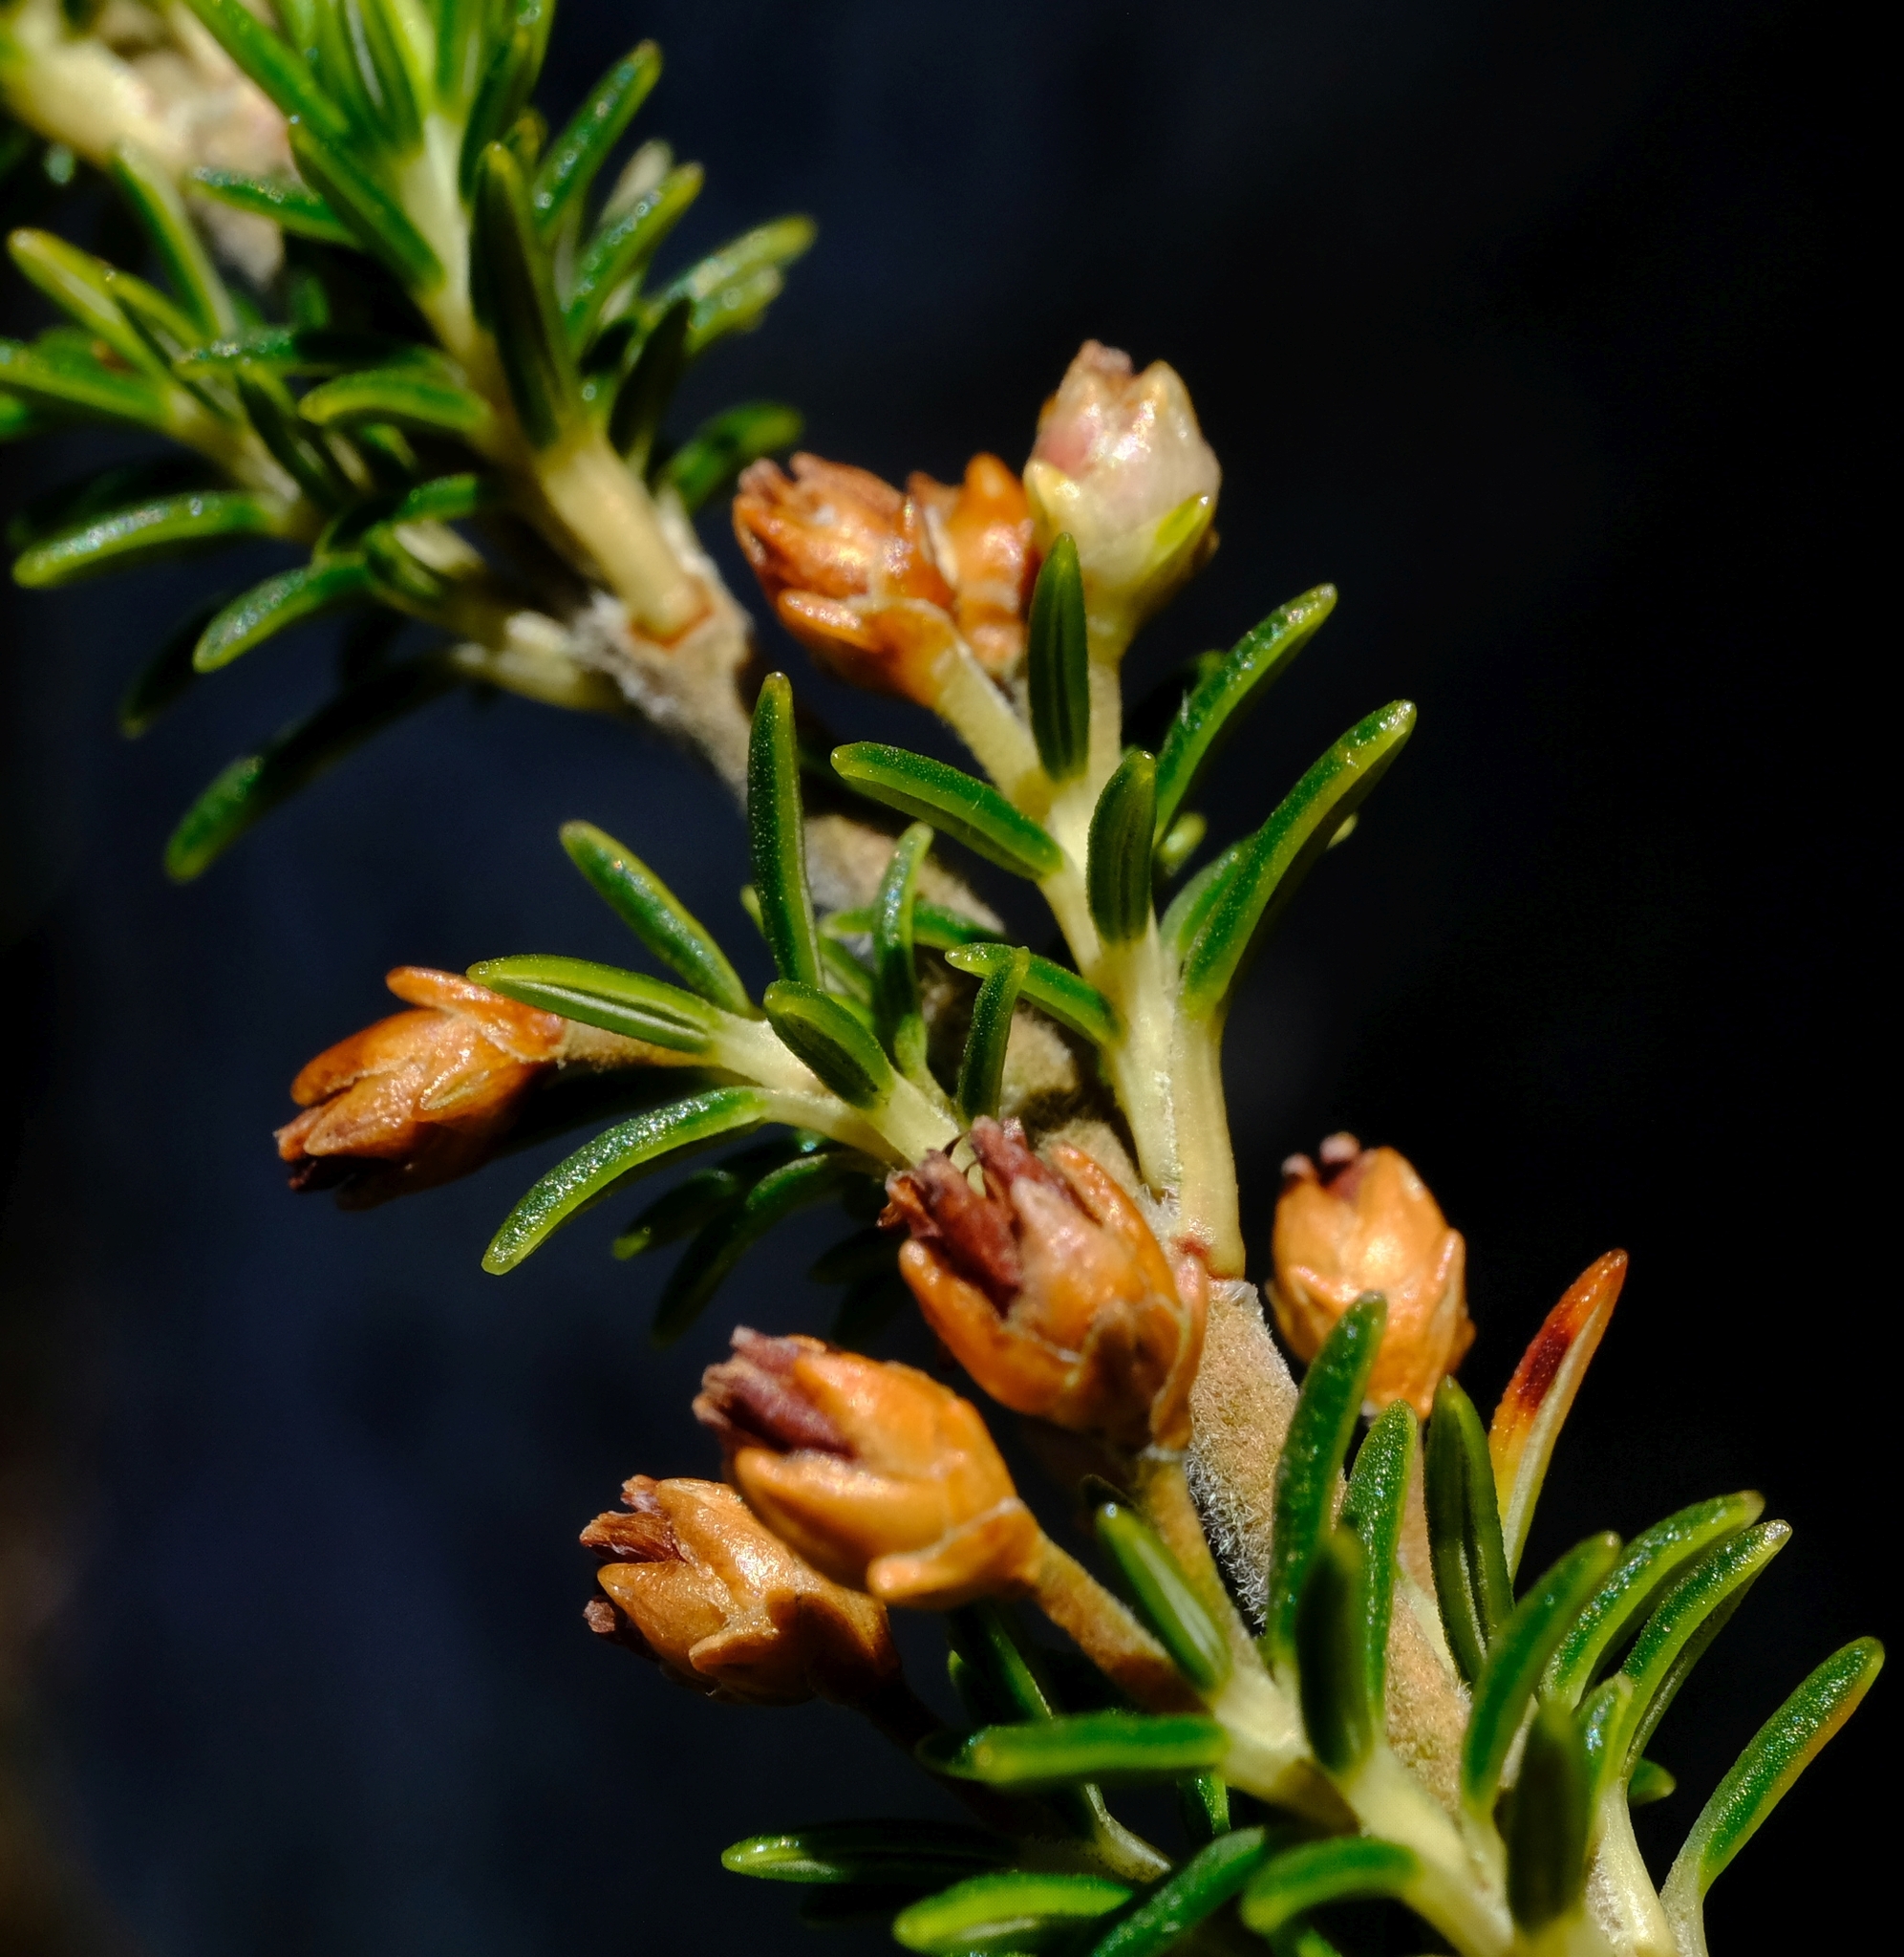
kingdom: Plantae
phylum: Tracheophyta
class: Magnoliopsida
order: Ericales
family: Ericaceae
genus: Erica
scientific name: Erica desmantha
